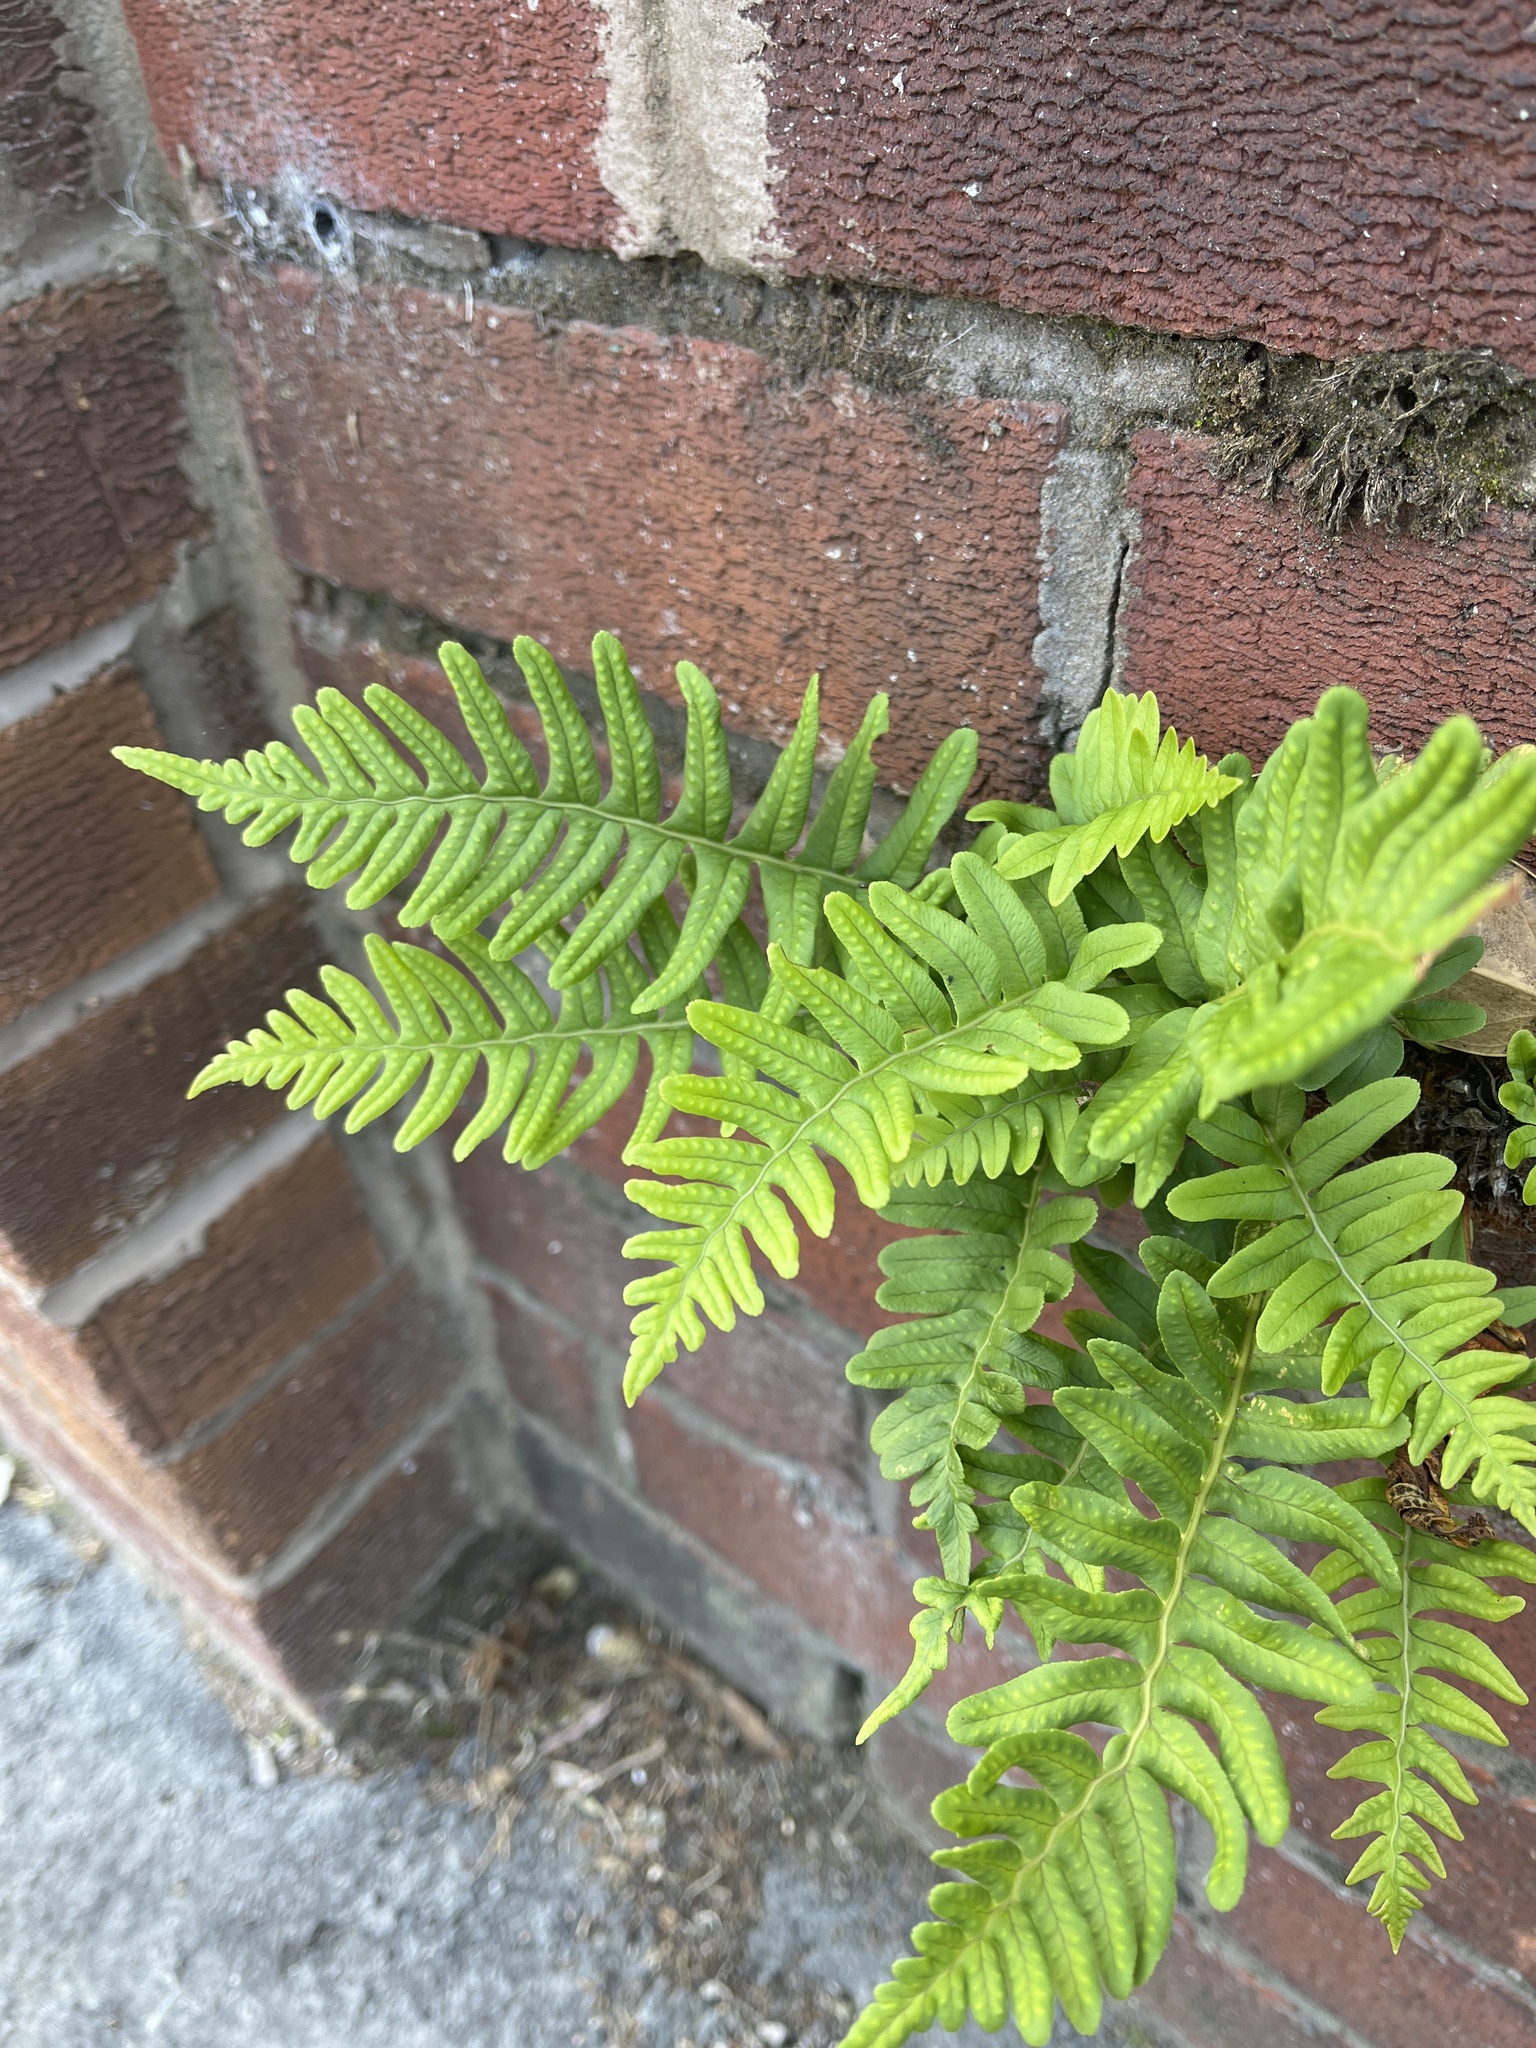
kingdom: Plantae
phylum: Tracheophyta
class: Polypodiopsida
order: Polypodiales
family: Polypodiaceae
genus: Polypodium
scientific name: Polypodium
